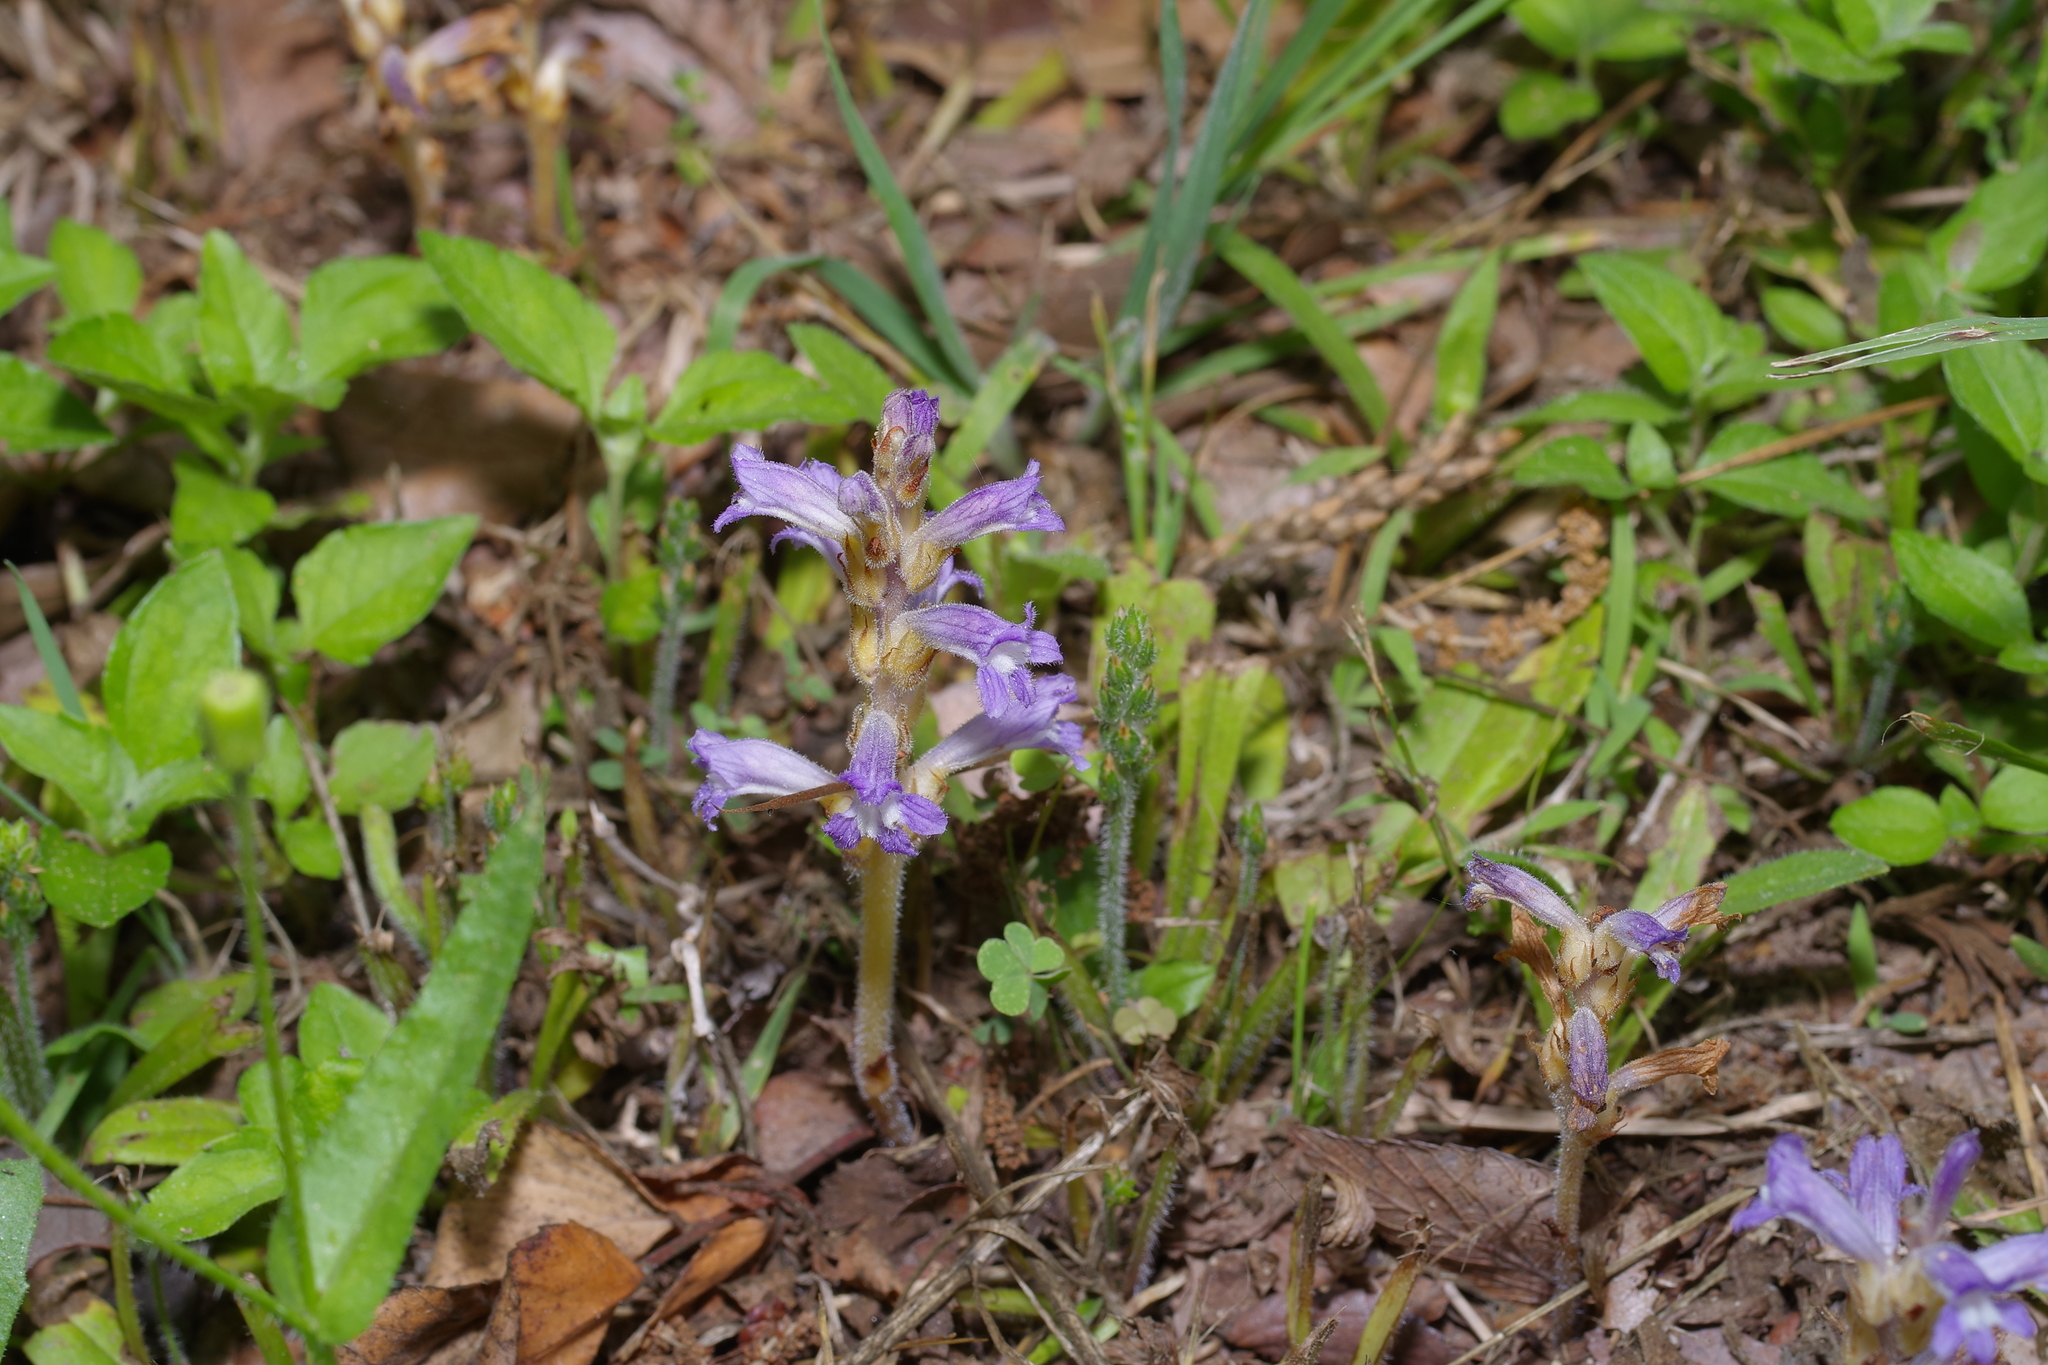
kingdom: Plantae
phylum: Tracheophyta
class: Magnoliopsida
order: Lamiales
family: Orobanchaceae
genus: Phelipanche
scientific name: Phelipanche mutelii
